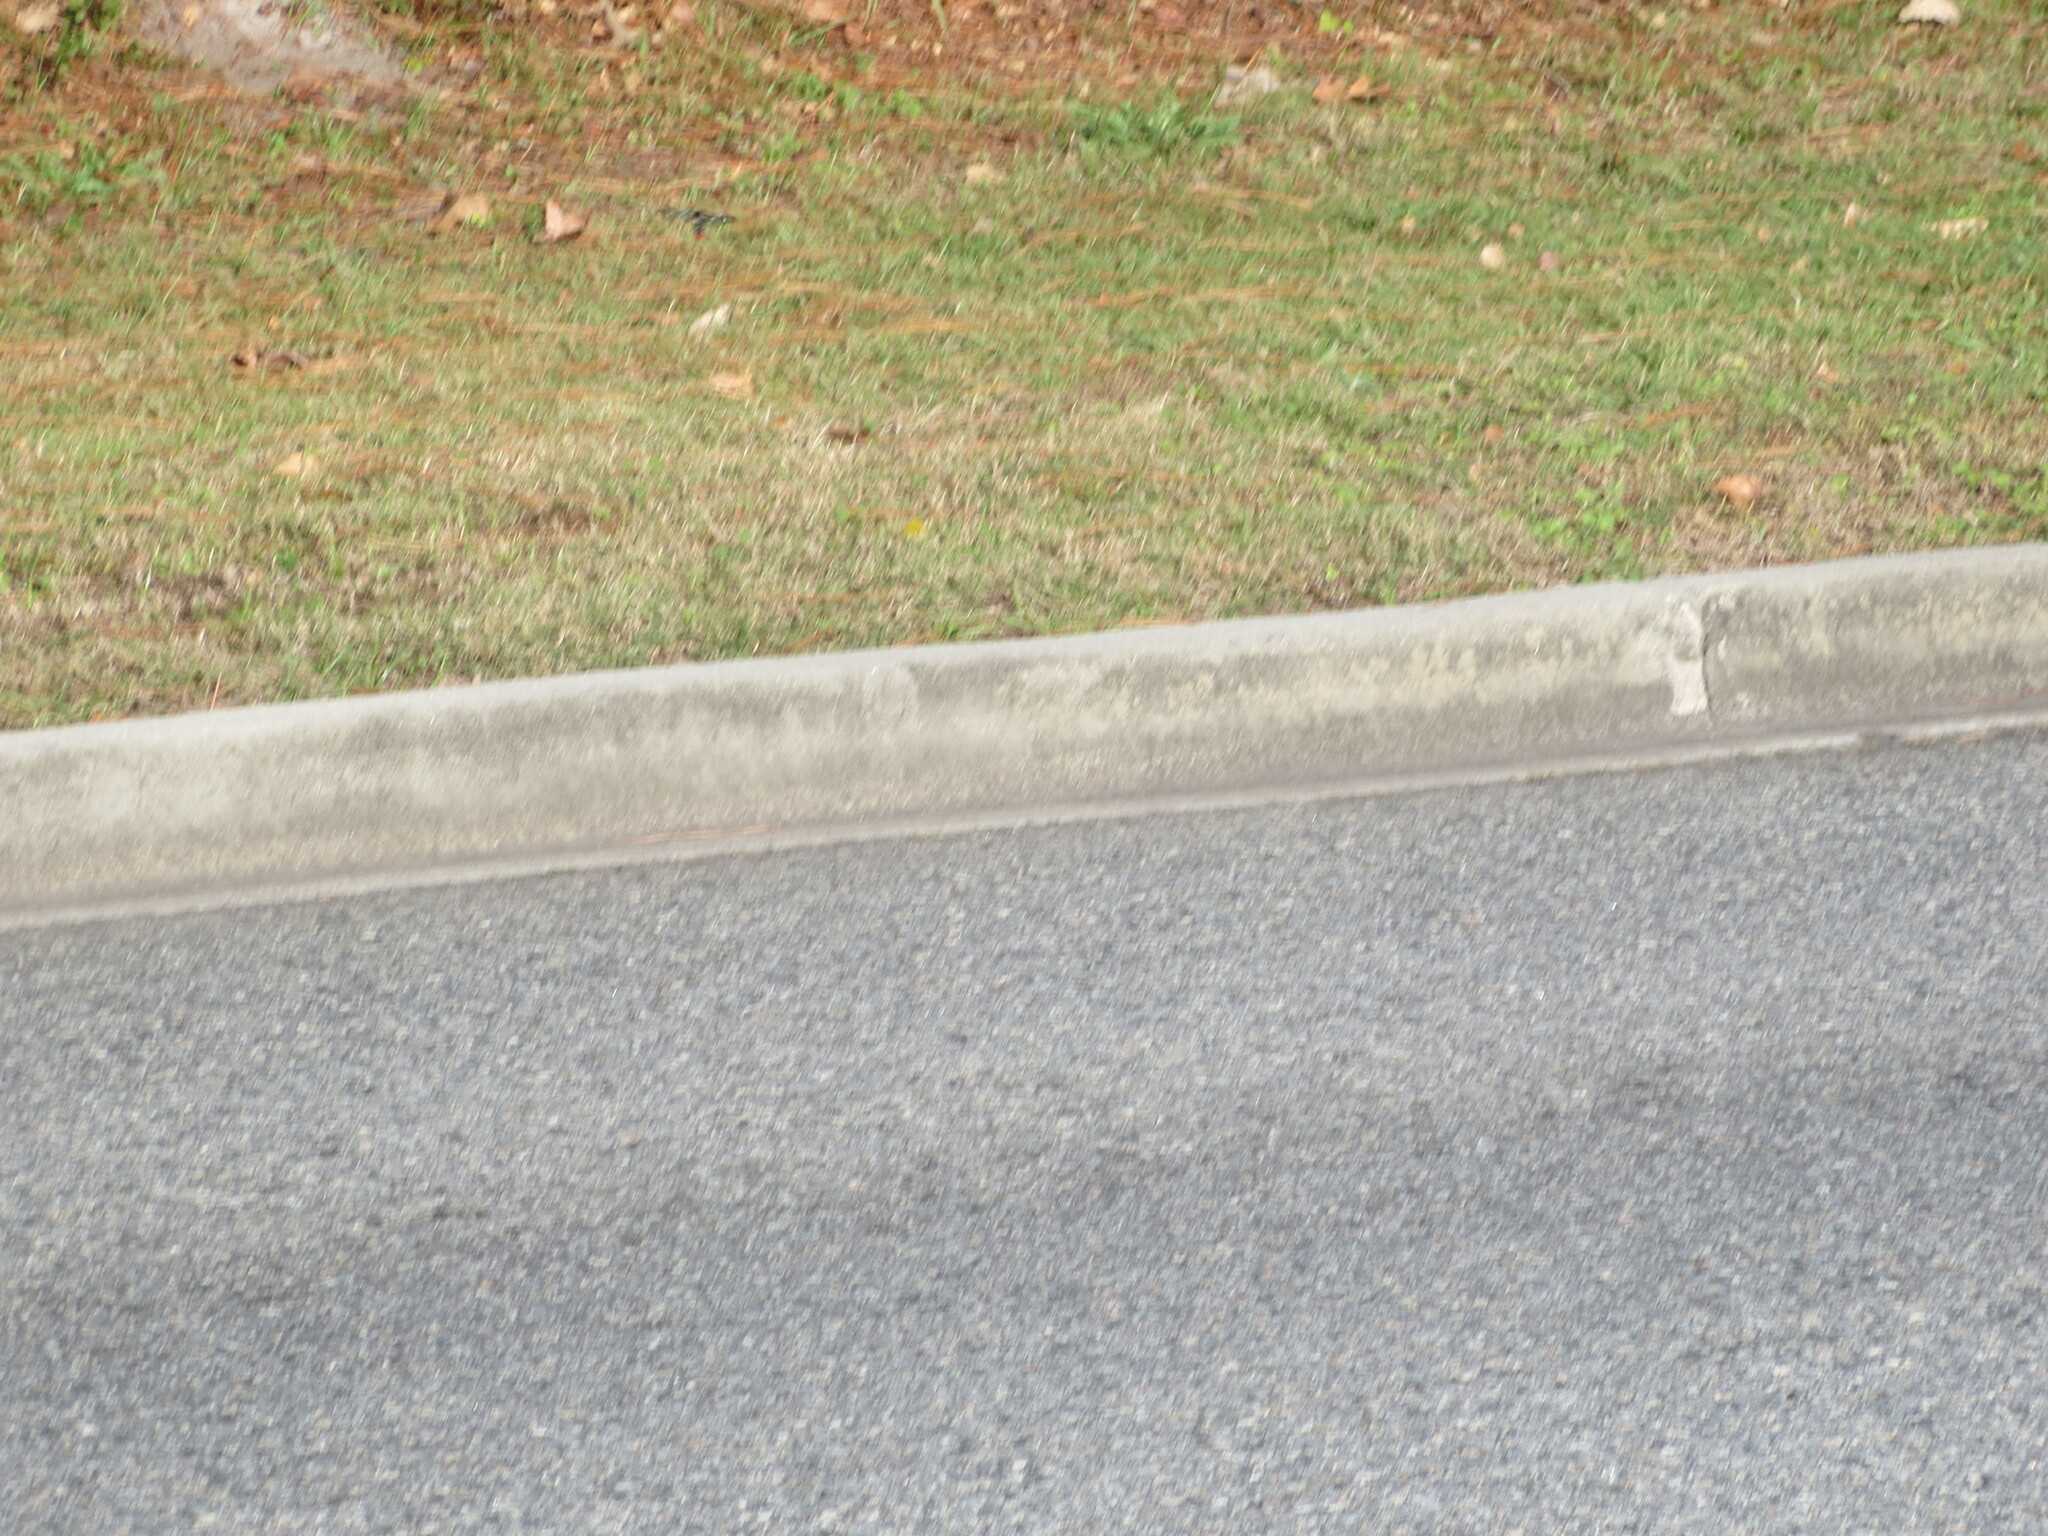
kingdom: Animalia
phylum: Arthropoda
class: Insecta
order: Lepidoptera
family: Erebidae
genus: Syntomeida
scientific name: Syntomeida epilais
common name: Polka-dot wasp moth
